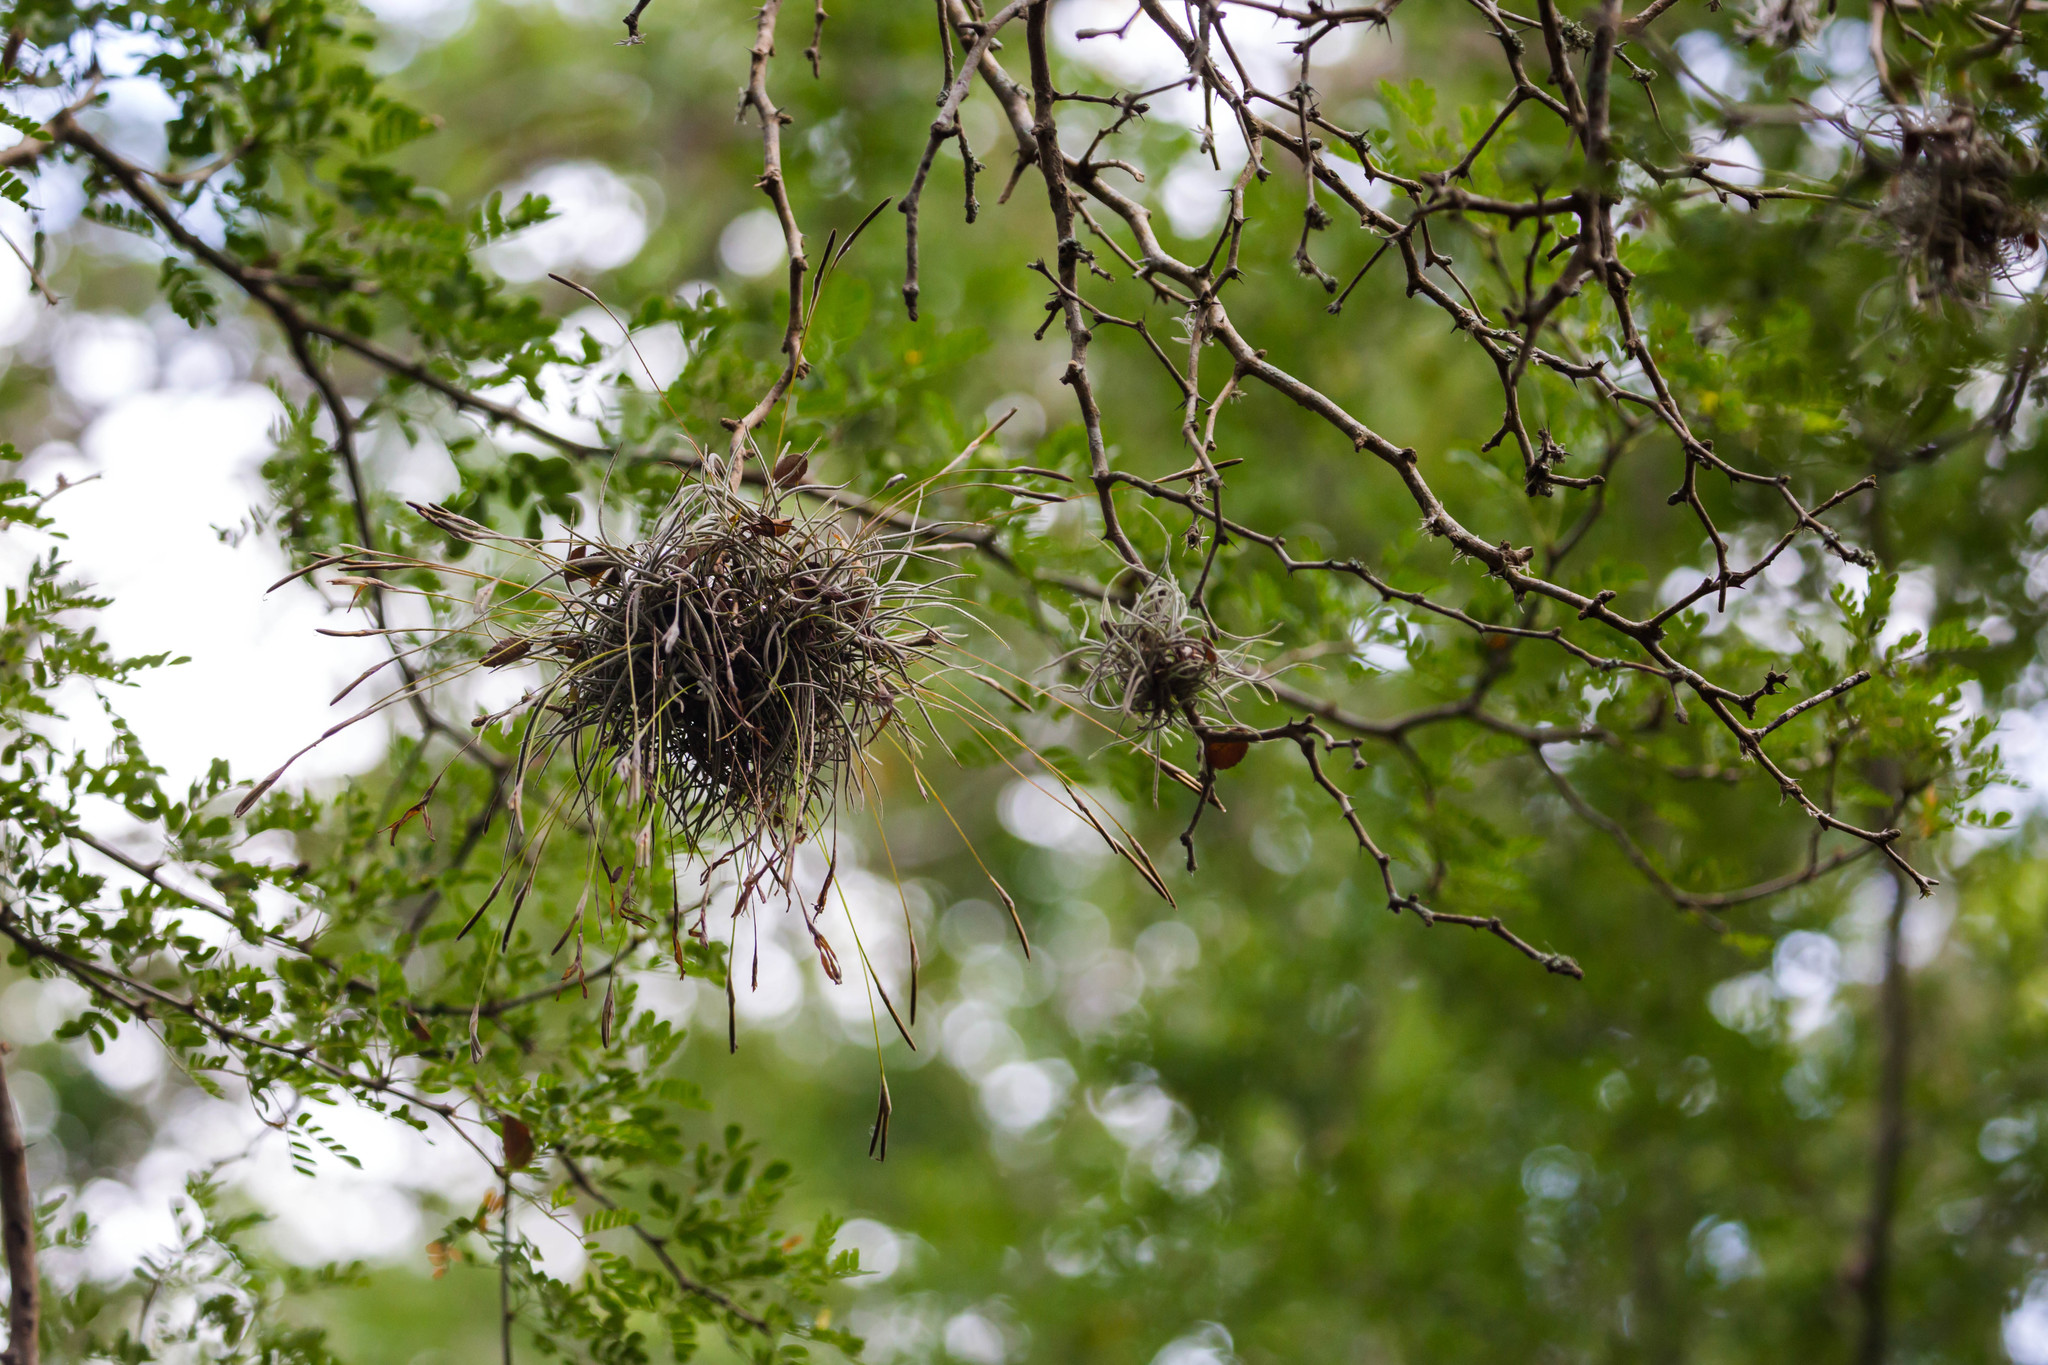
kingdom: Plantae
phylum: Tracheophyta
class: Liliopsida
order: Poales
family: Bromeliaceae
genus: Tillandsia
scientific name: Tillandsia recurvata
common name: Small ballmoss
